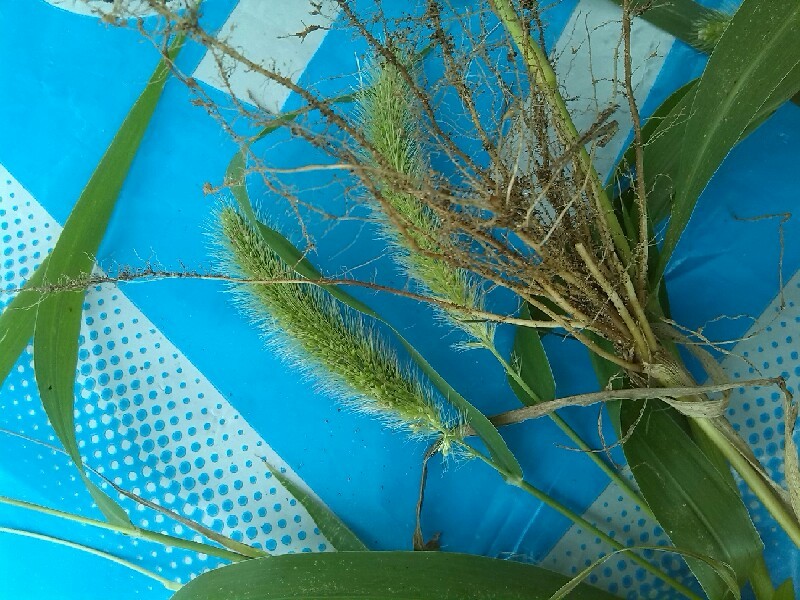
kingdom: Plantae
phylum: Tracheophyta
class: Liliopsida
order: Poales
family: Poaceae
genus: Setaria
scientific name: Setaria viridis
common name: Green bristlegrass
